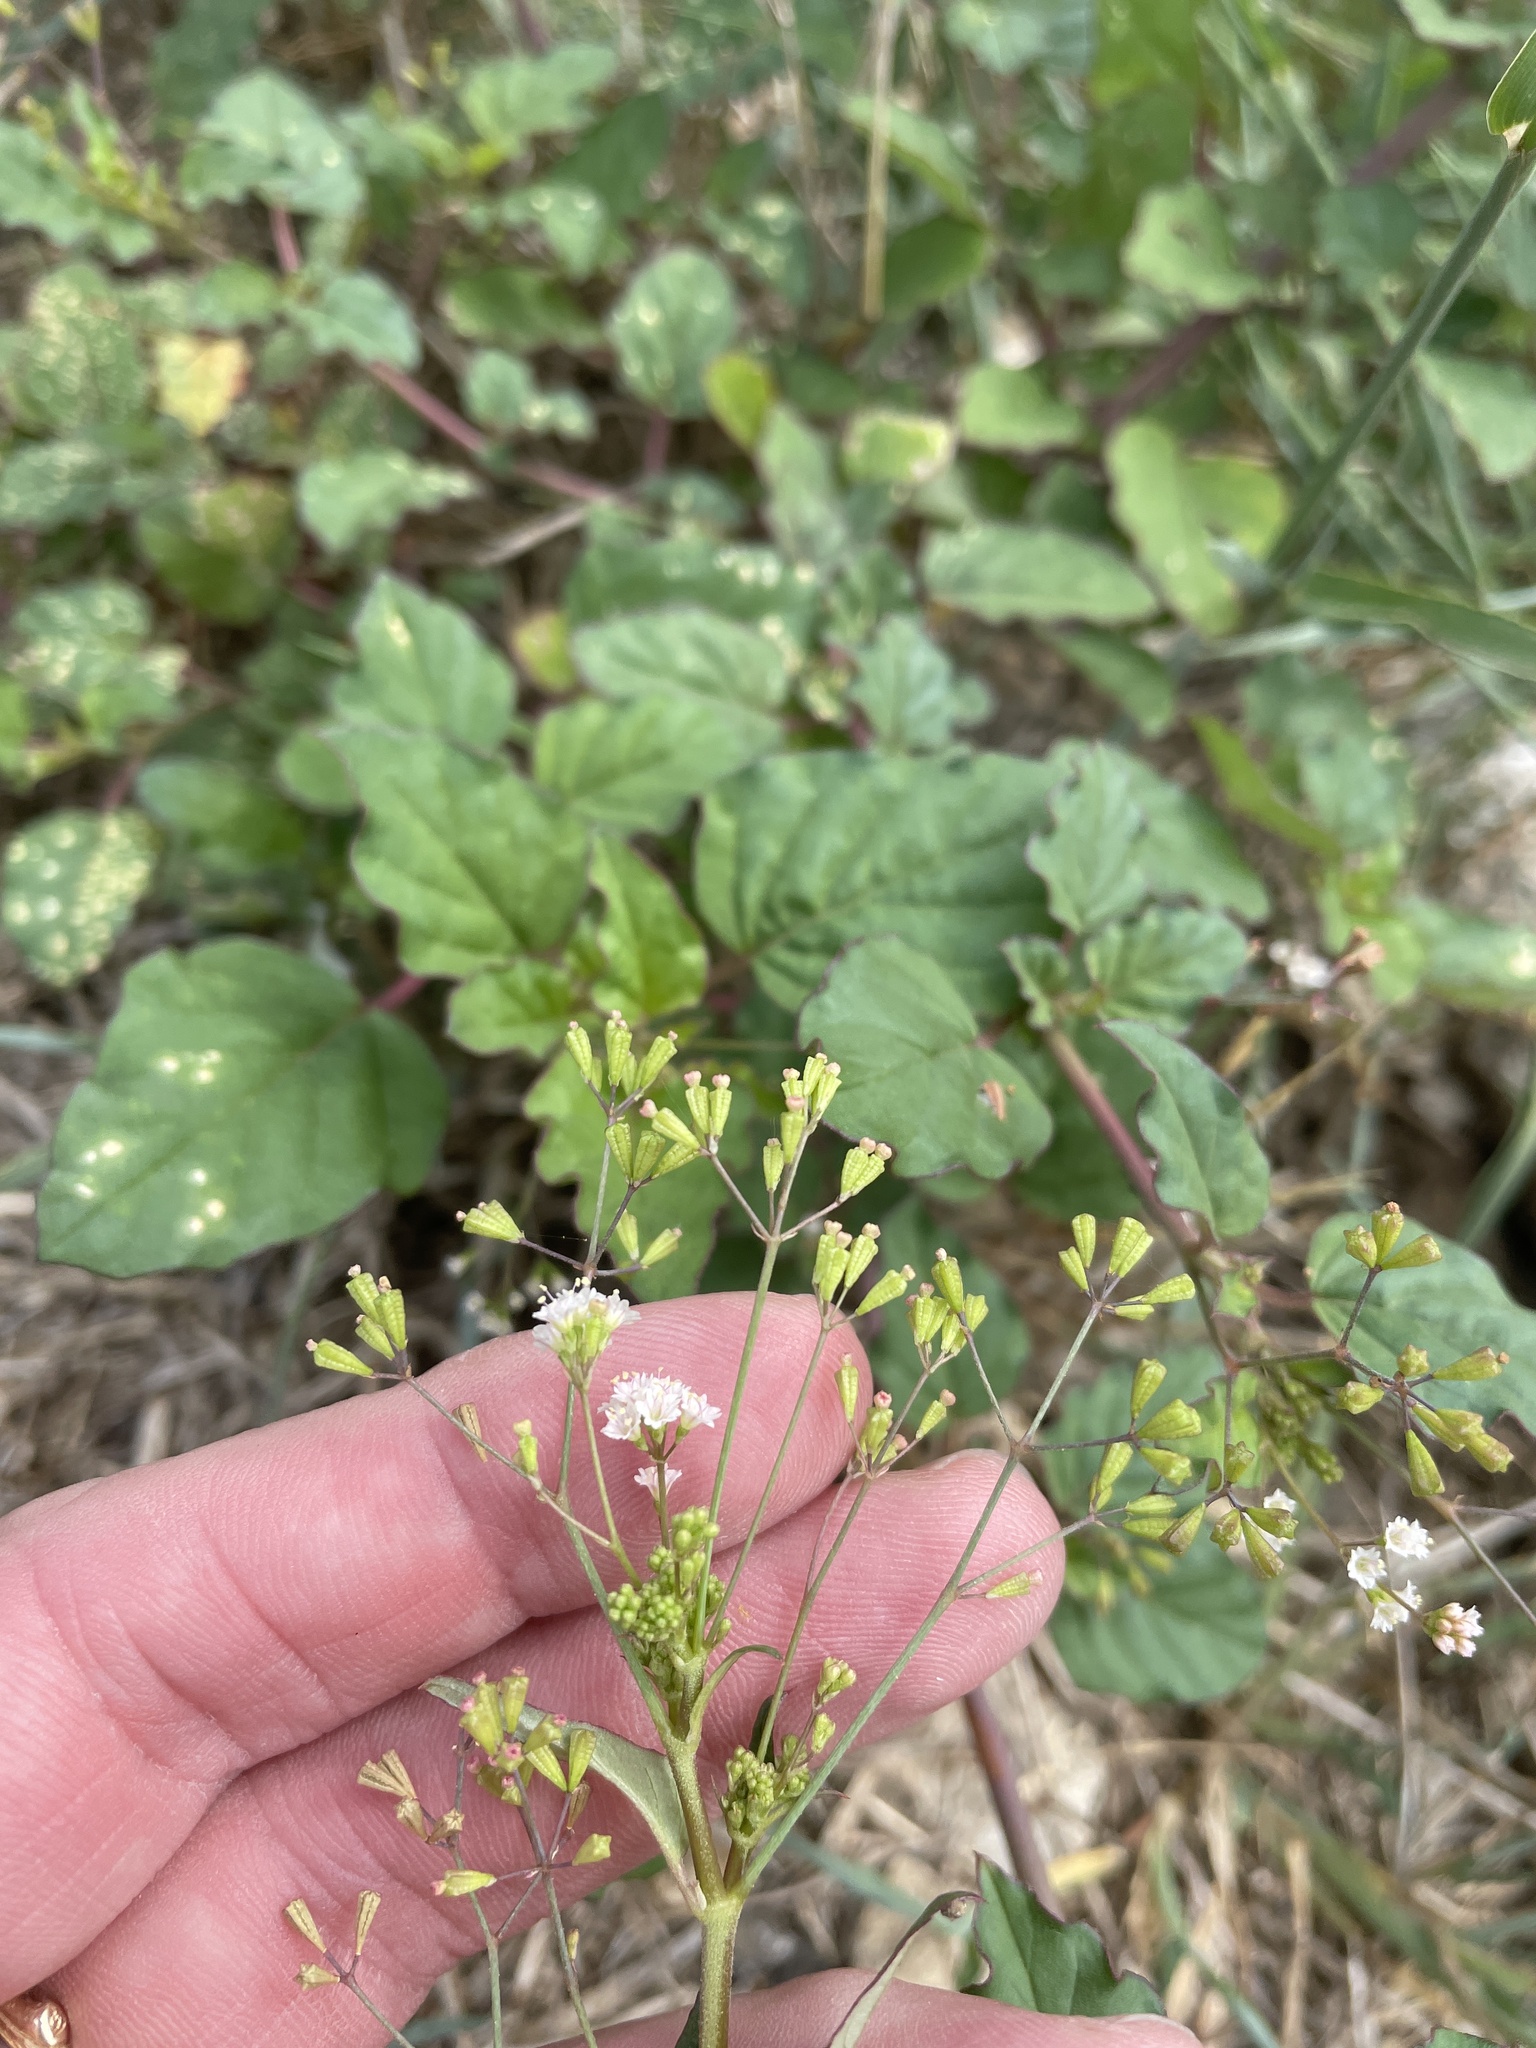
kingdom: Plantae
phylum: Tracheophyta
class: Magnoliopsida
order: Caryophyllales
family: Nyctaginaceae
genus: Boerhavia
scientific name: Boerhavia erecta
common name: Erect spiderling
